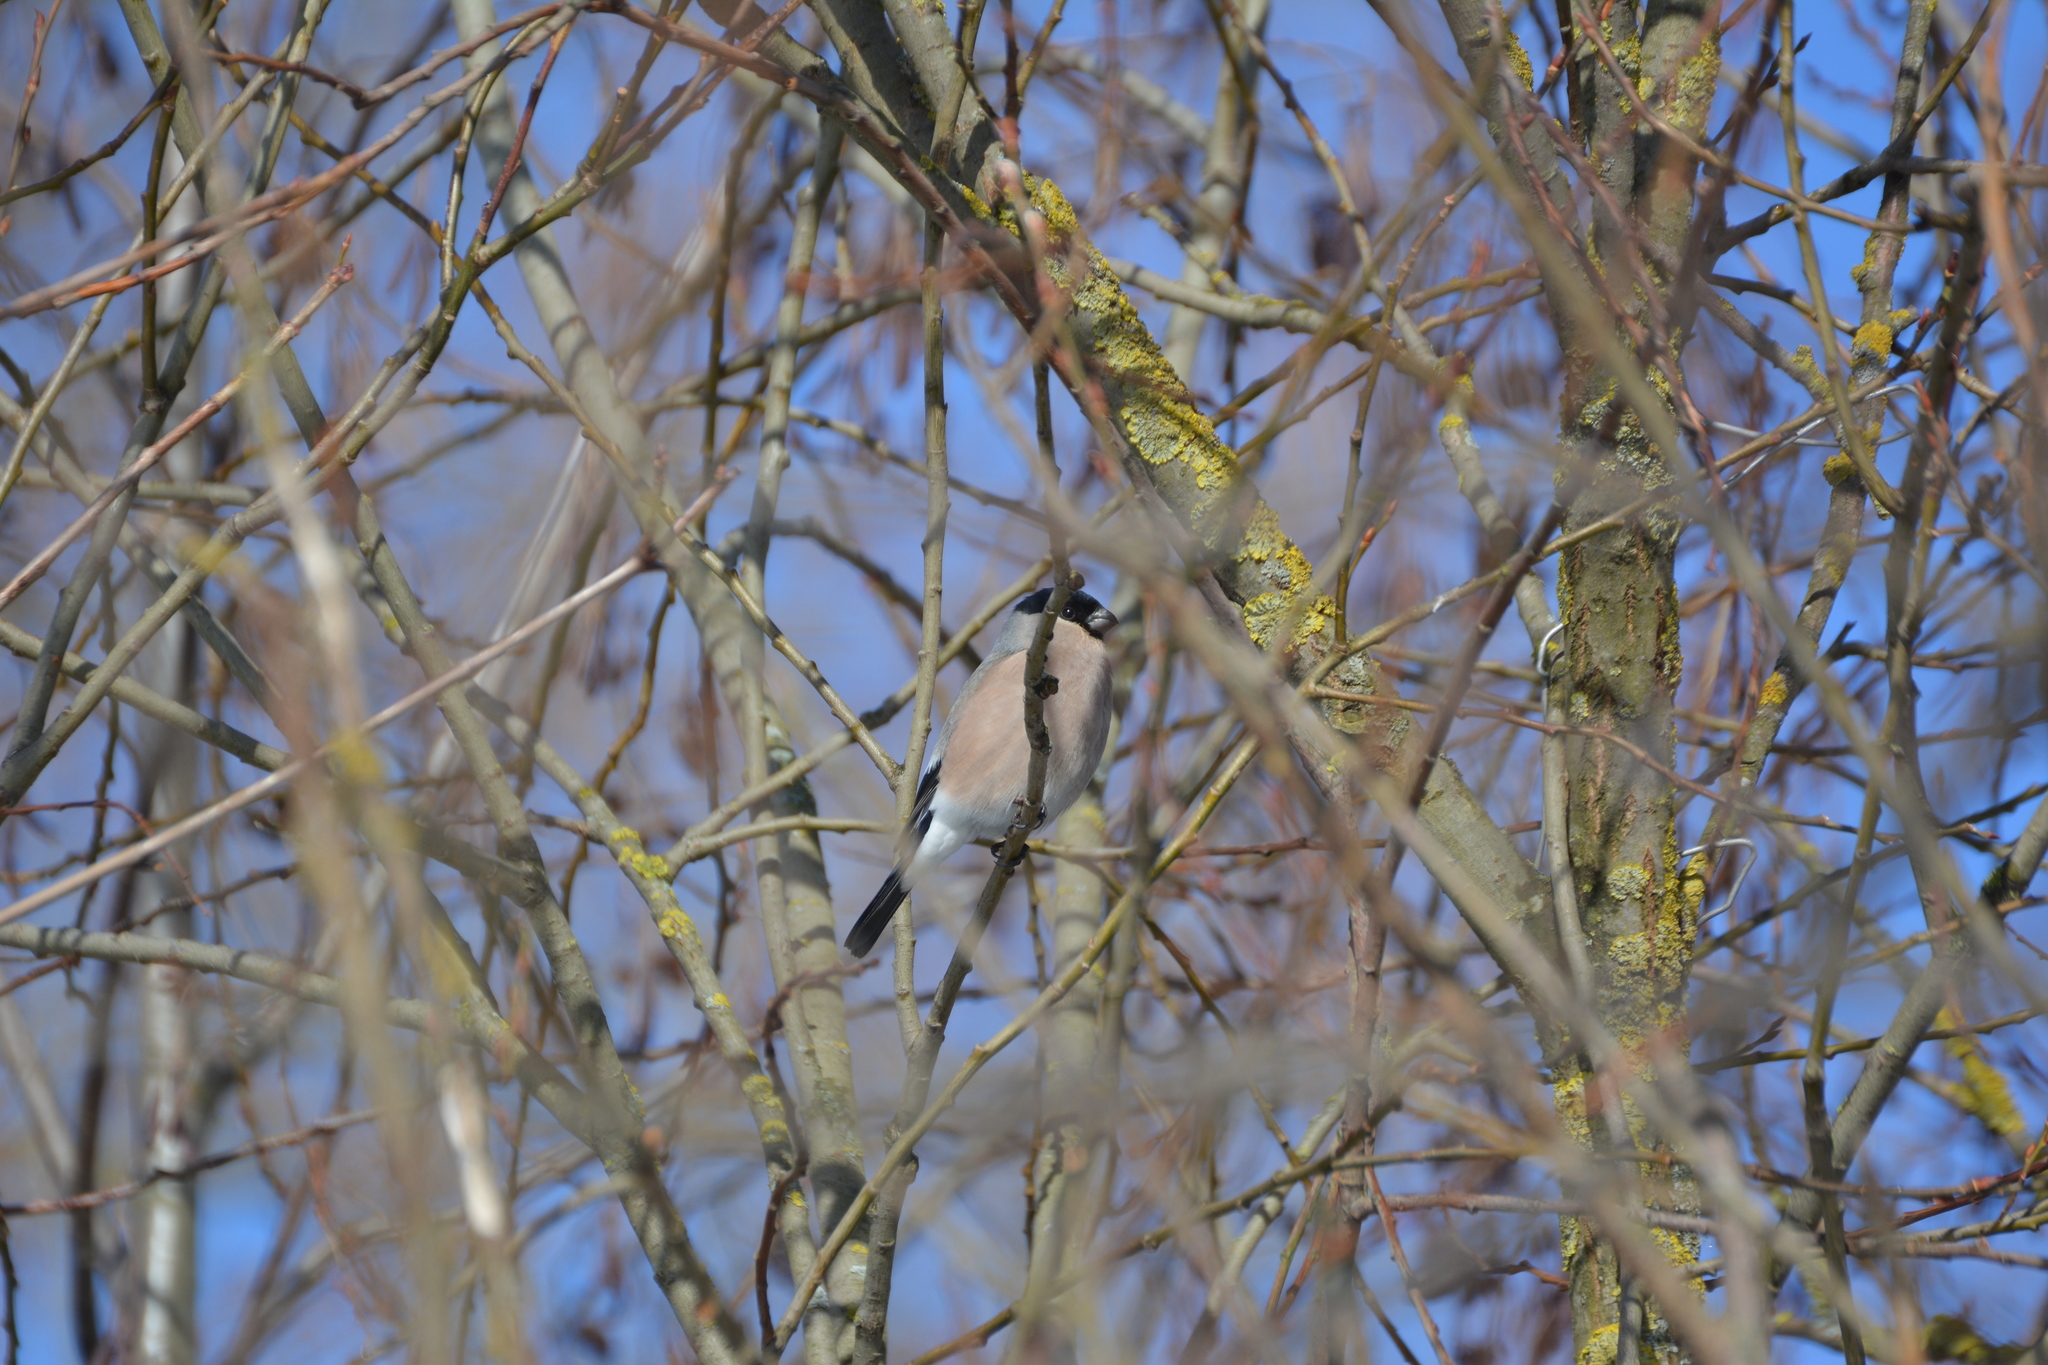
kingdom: Animalia
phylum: Chordata
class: Aves
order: Passeriformes
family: Fringillidae
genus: Pyrrhula
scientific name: Pyrrhula pyrrhula
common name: Eurasian bullfinch
